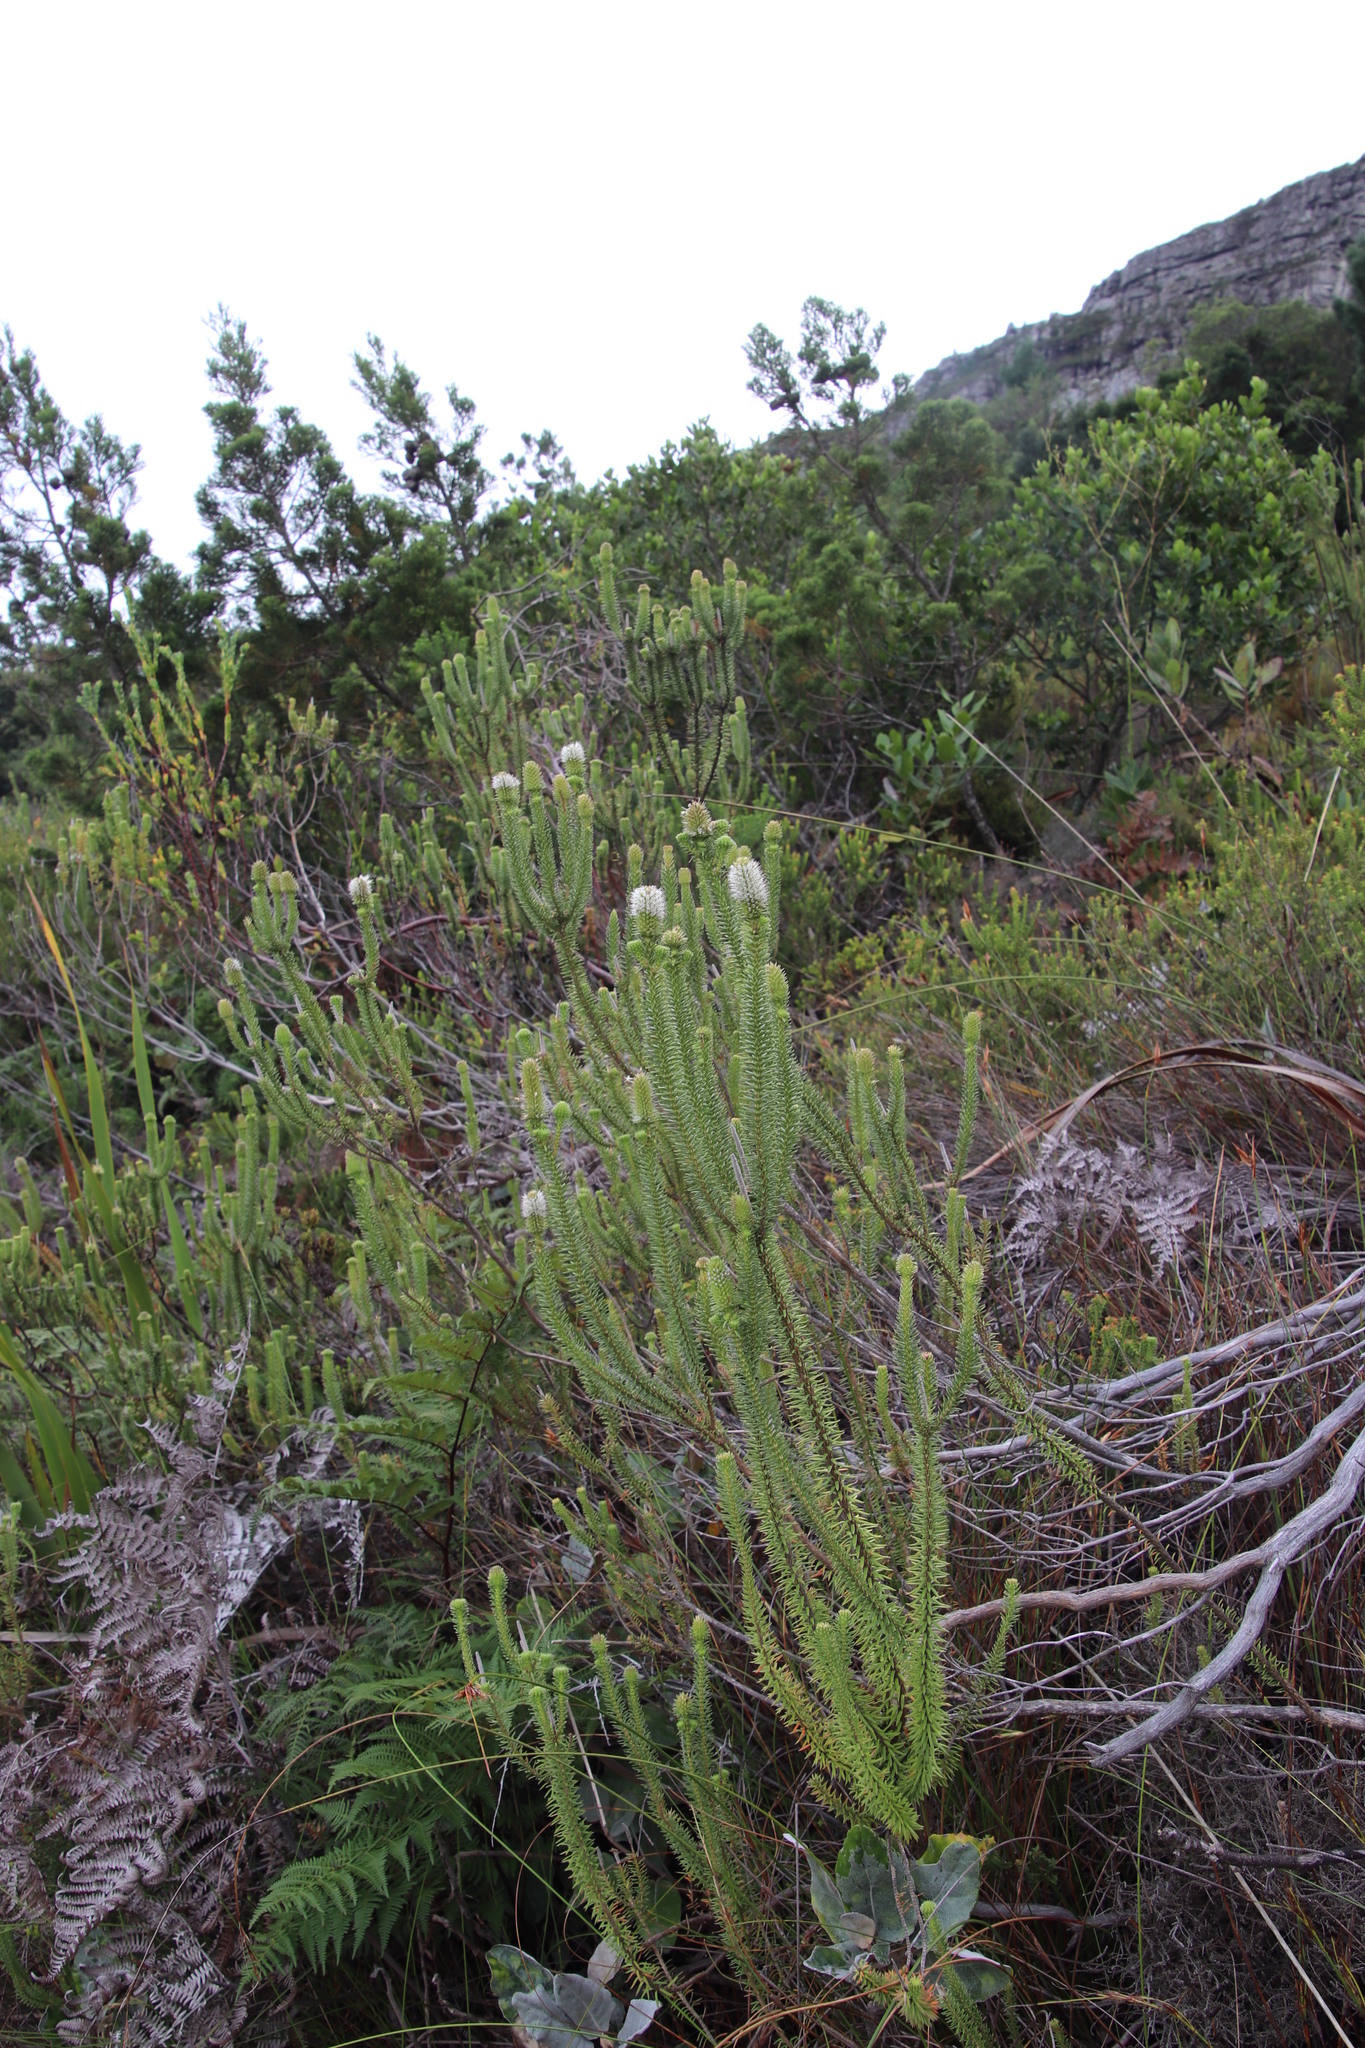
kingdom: Plantae
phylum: Tracheophyta
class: Magnoliopsida
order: Lamiales
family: Stilbaceae
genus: Stilbe
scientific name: Stilbe vestita
